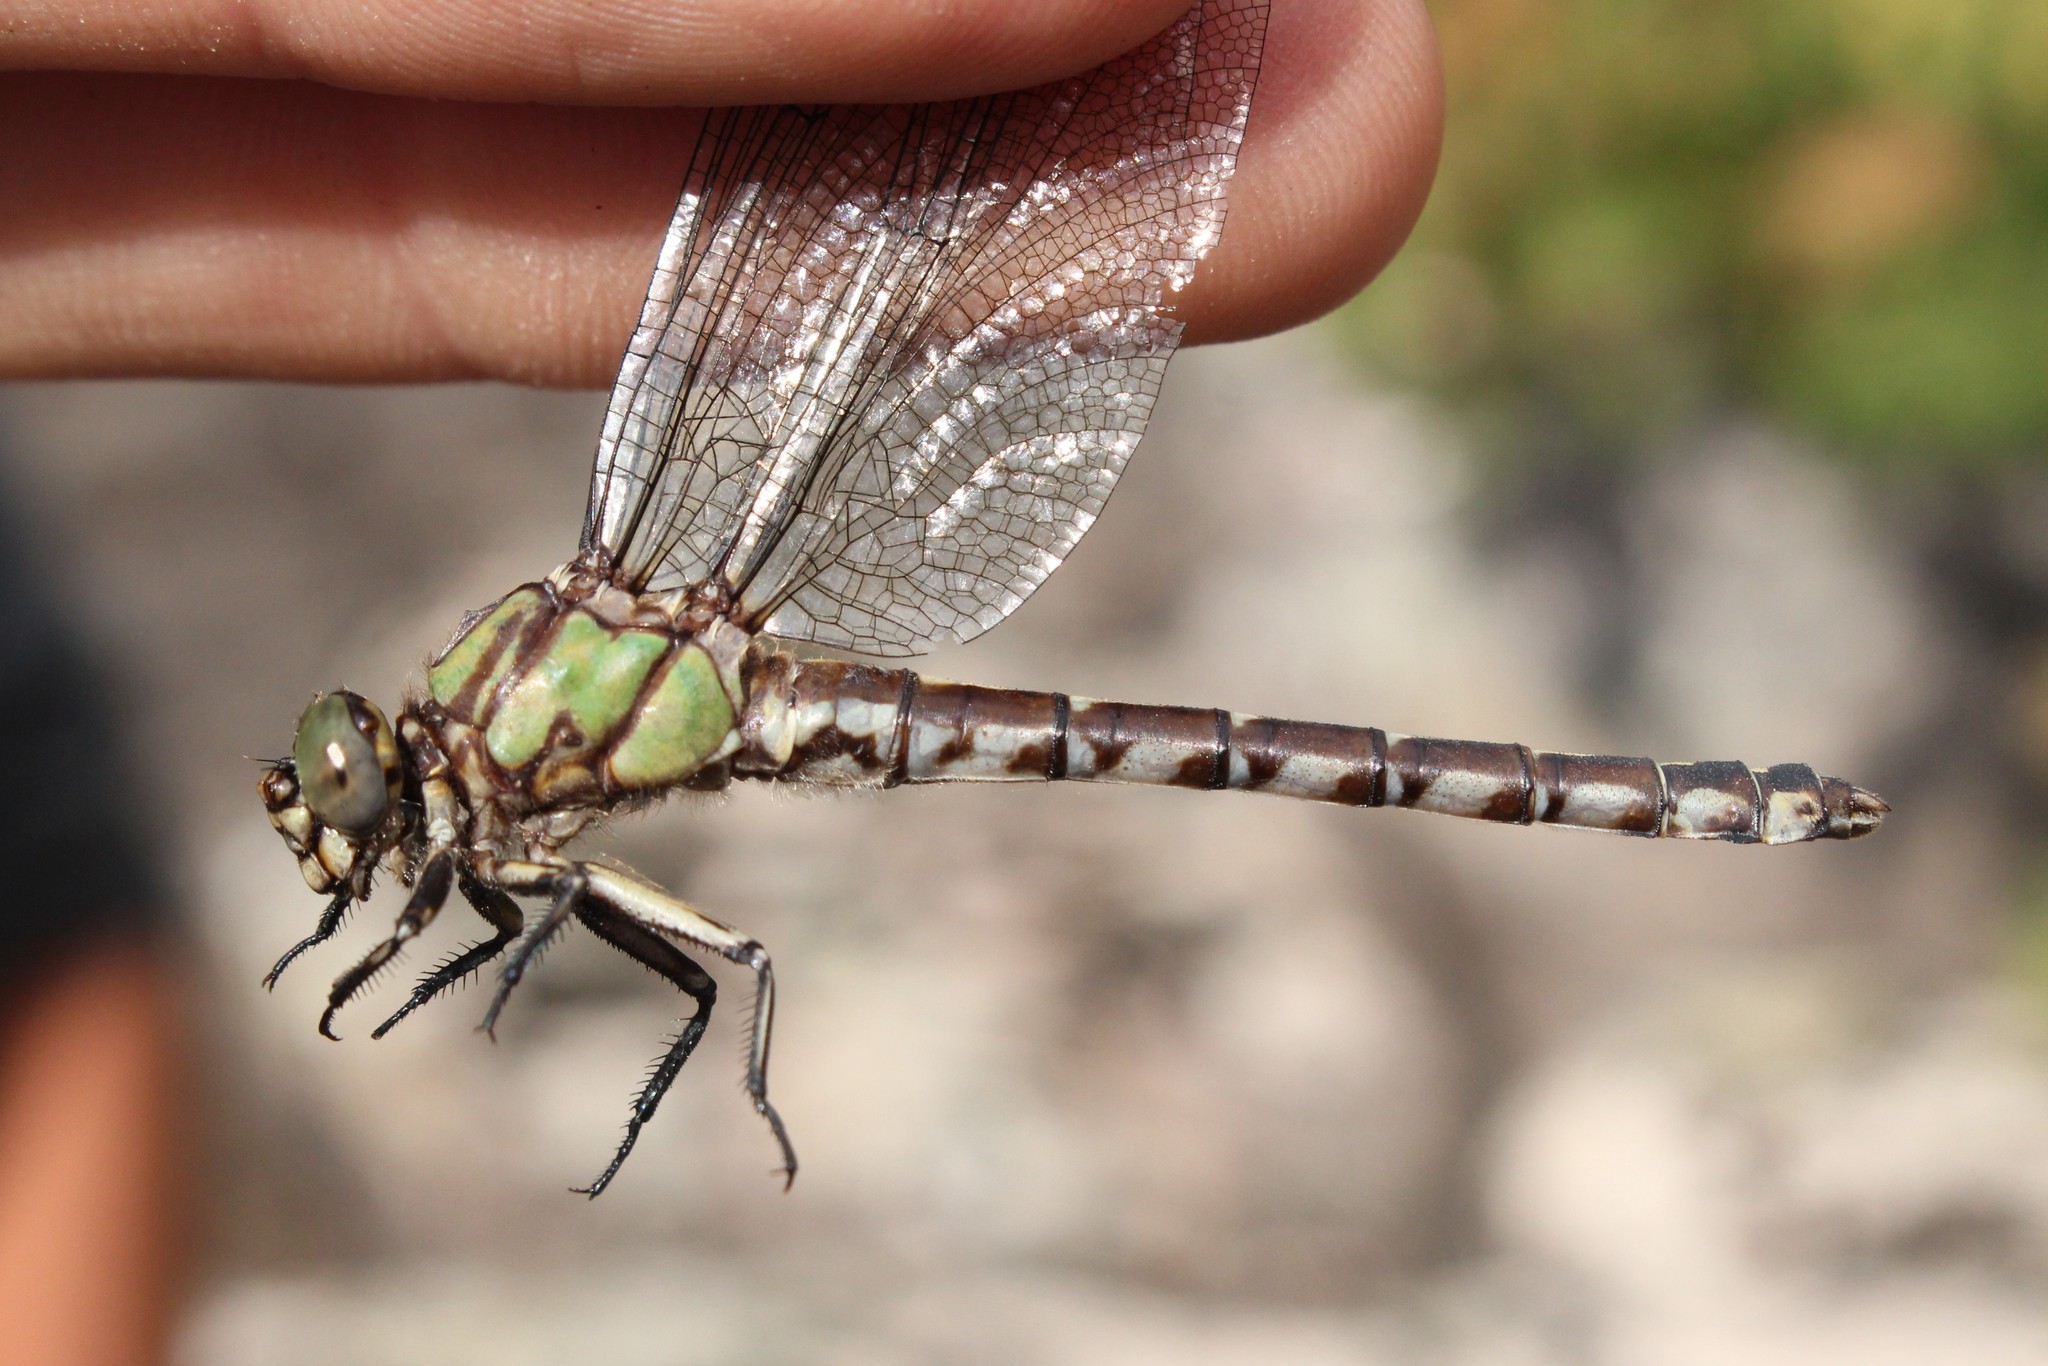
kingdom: Animalia
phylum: Arthropoda
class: Insecta
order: Odonata
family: Gomphidae
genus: Ophiogomphus
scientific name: Ophiogomphus colubrinus
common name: Boreal snaketail
